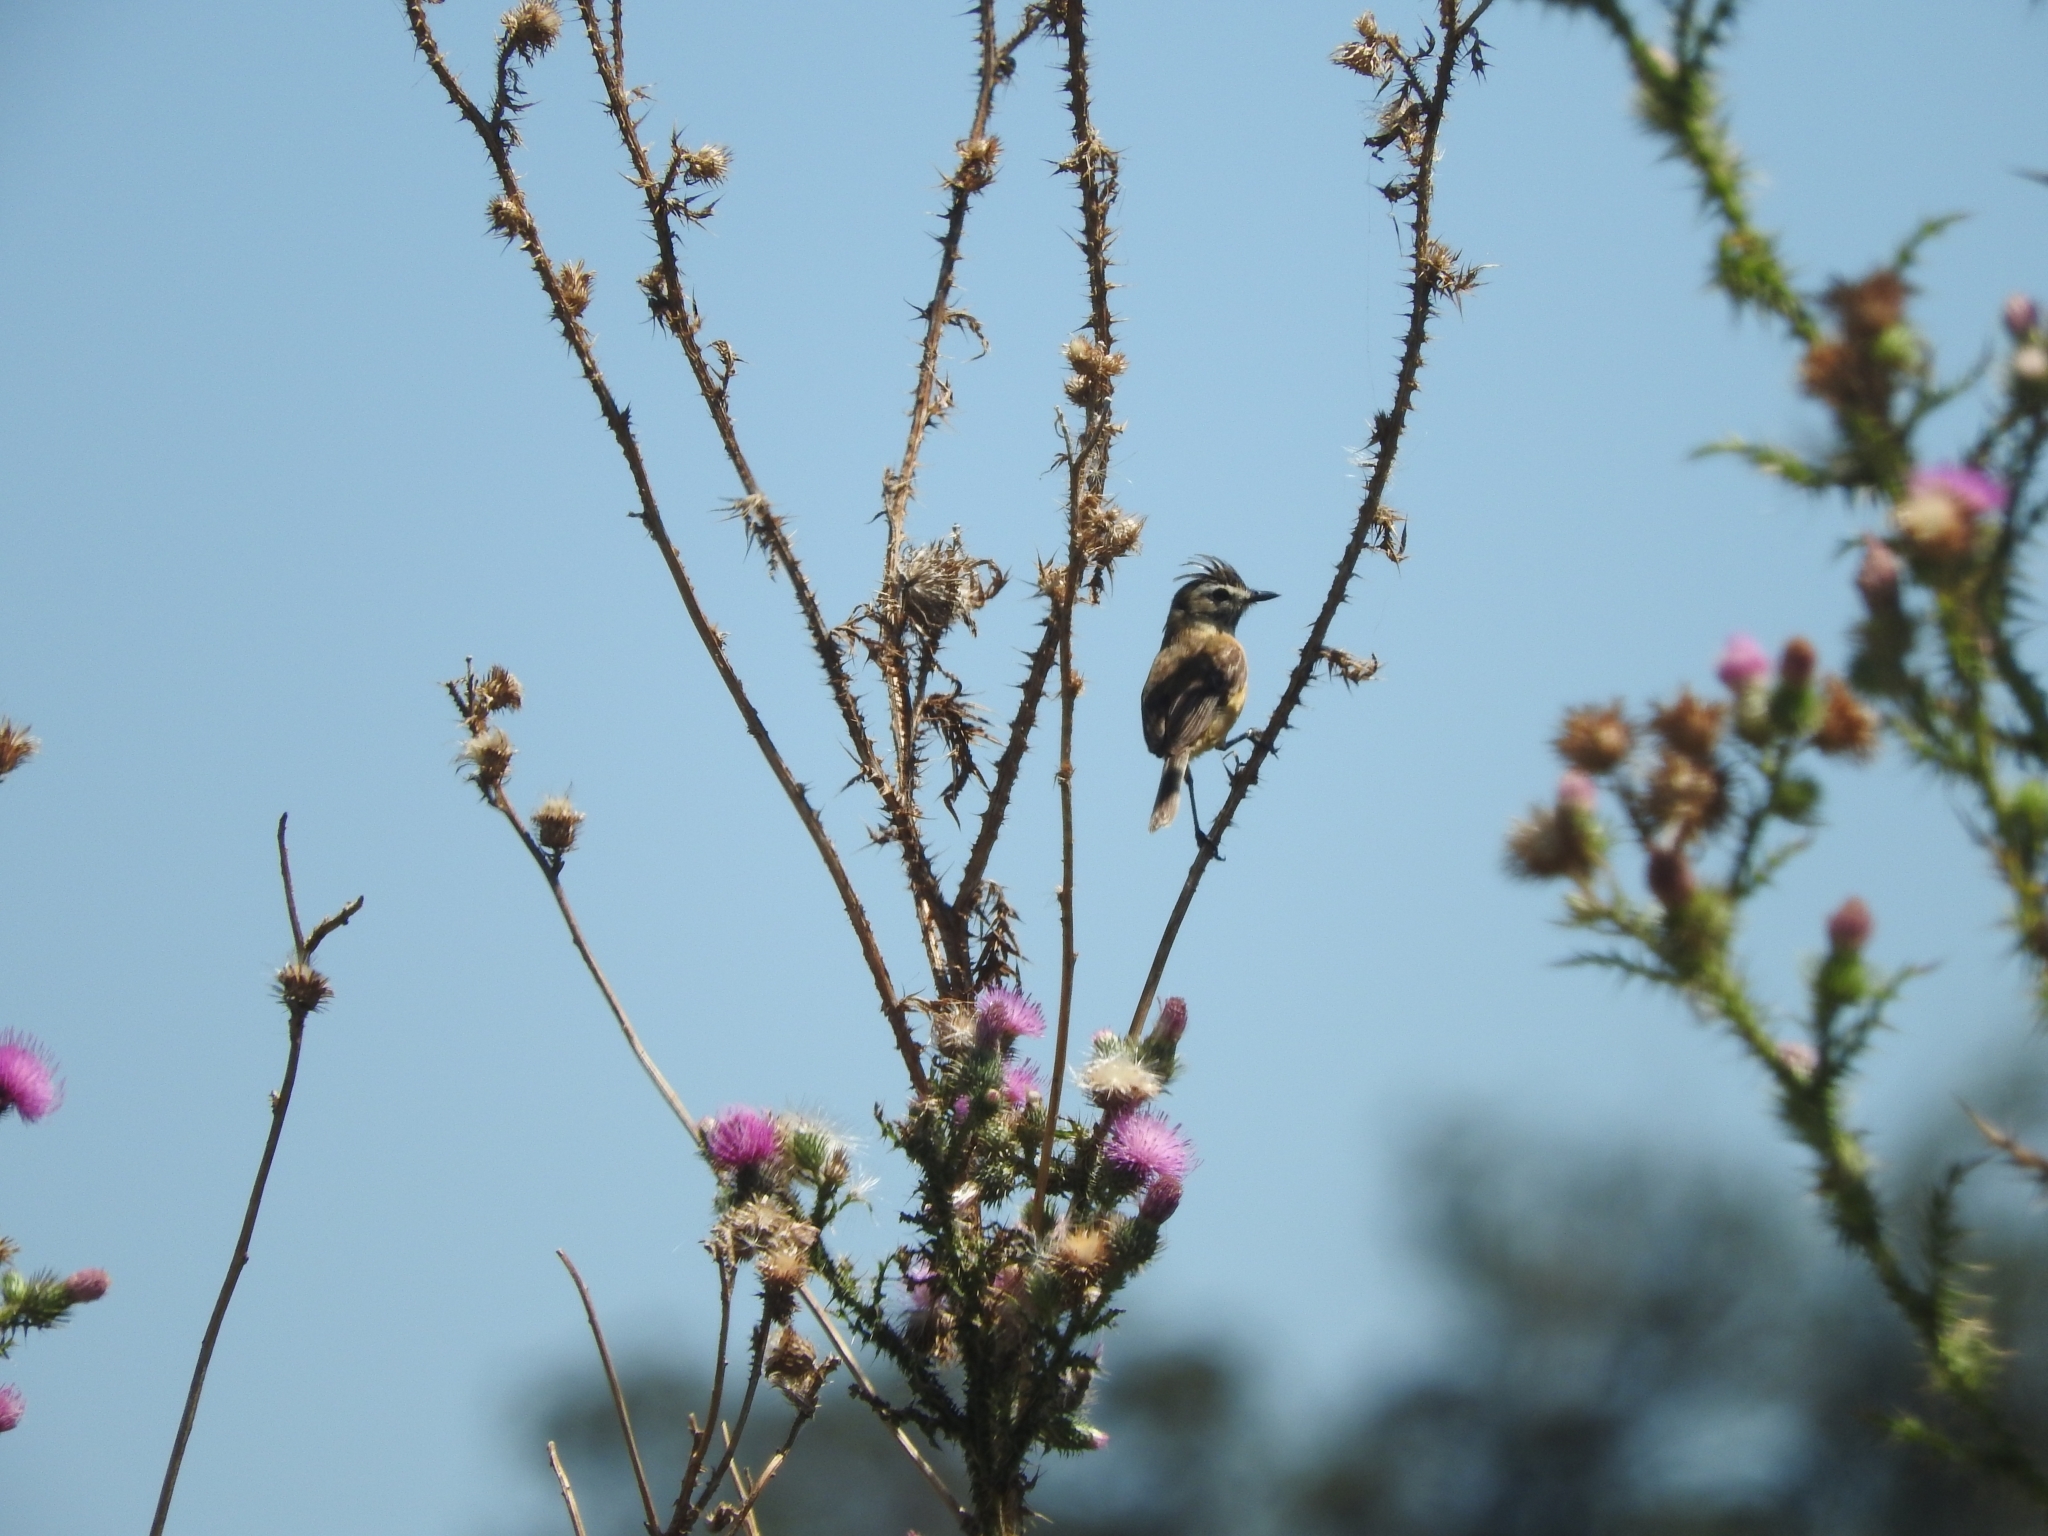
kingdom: Animalia
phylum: Chordata
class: Aves
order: Passeriformes
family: Tyrannidae
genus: Polystictus
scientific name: Polystictus pectoralis
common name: Bearded tachuri
